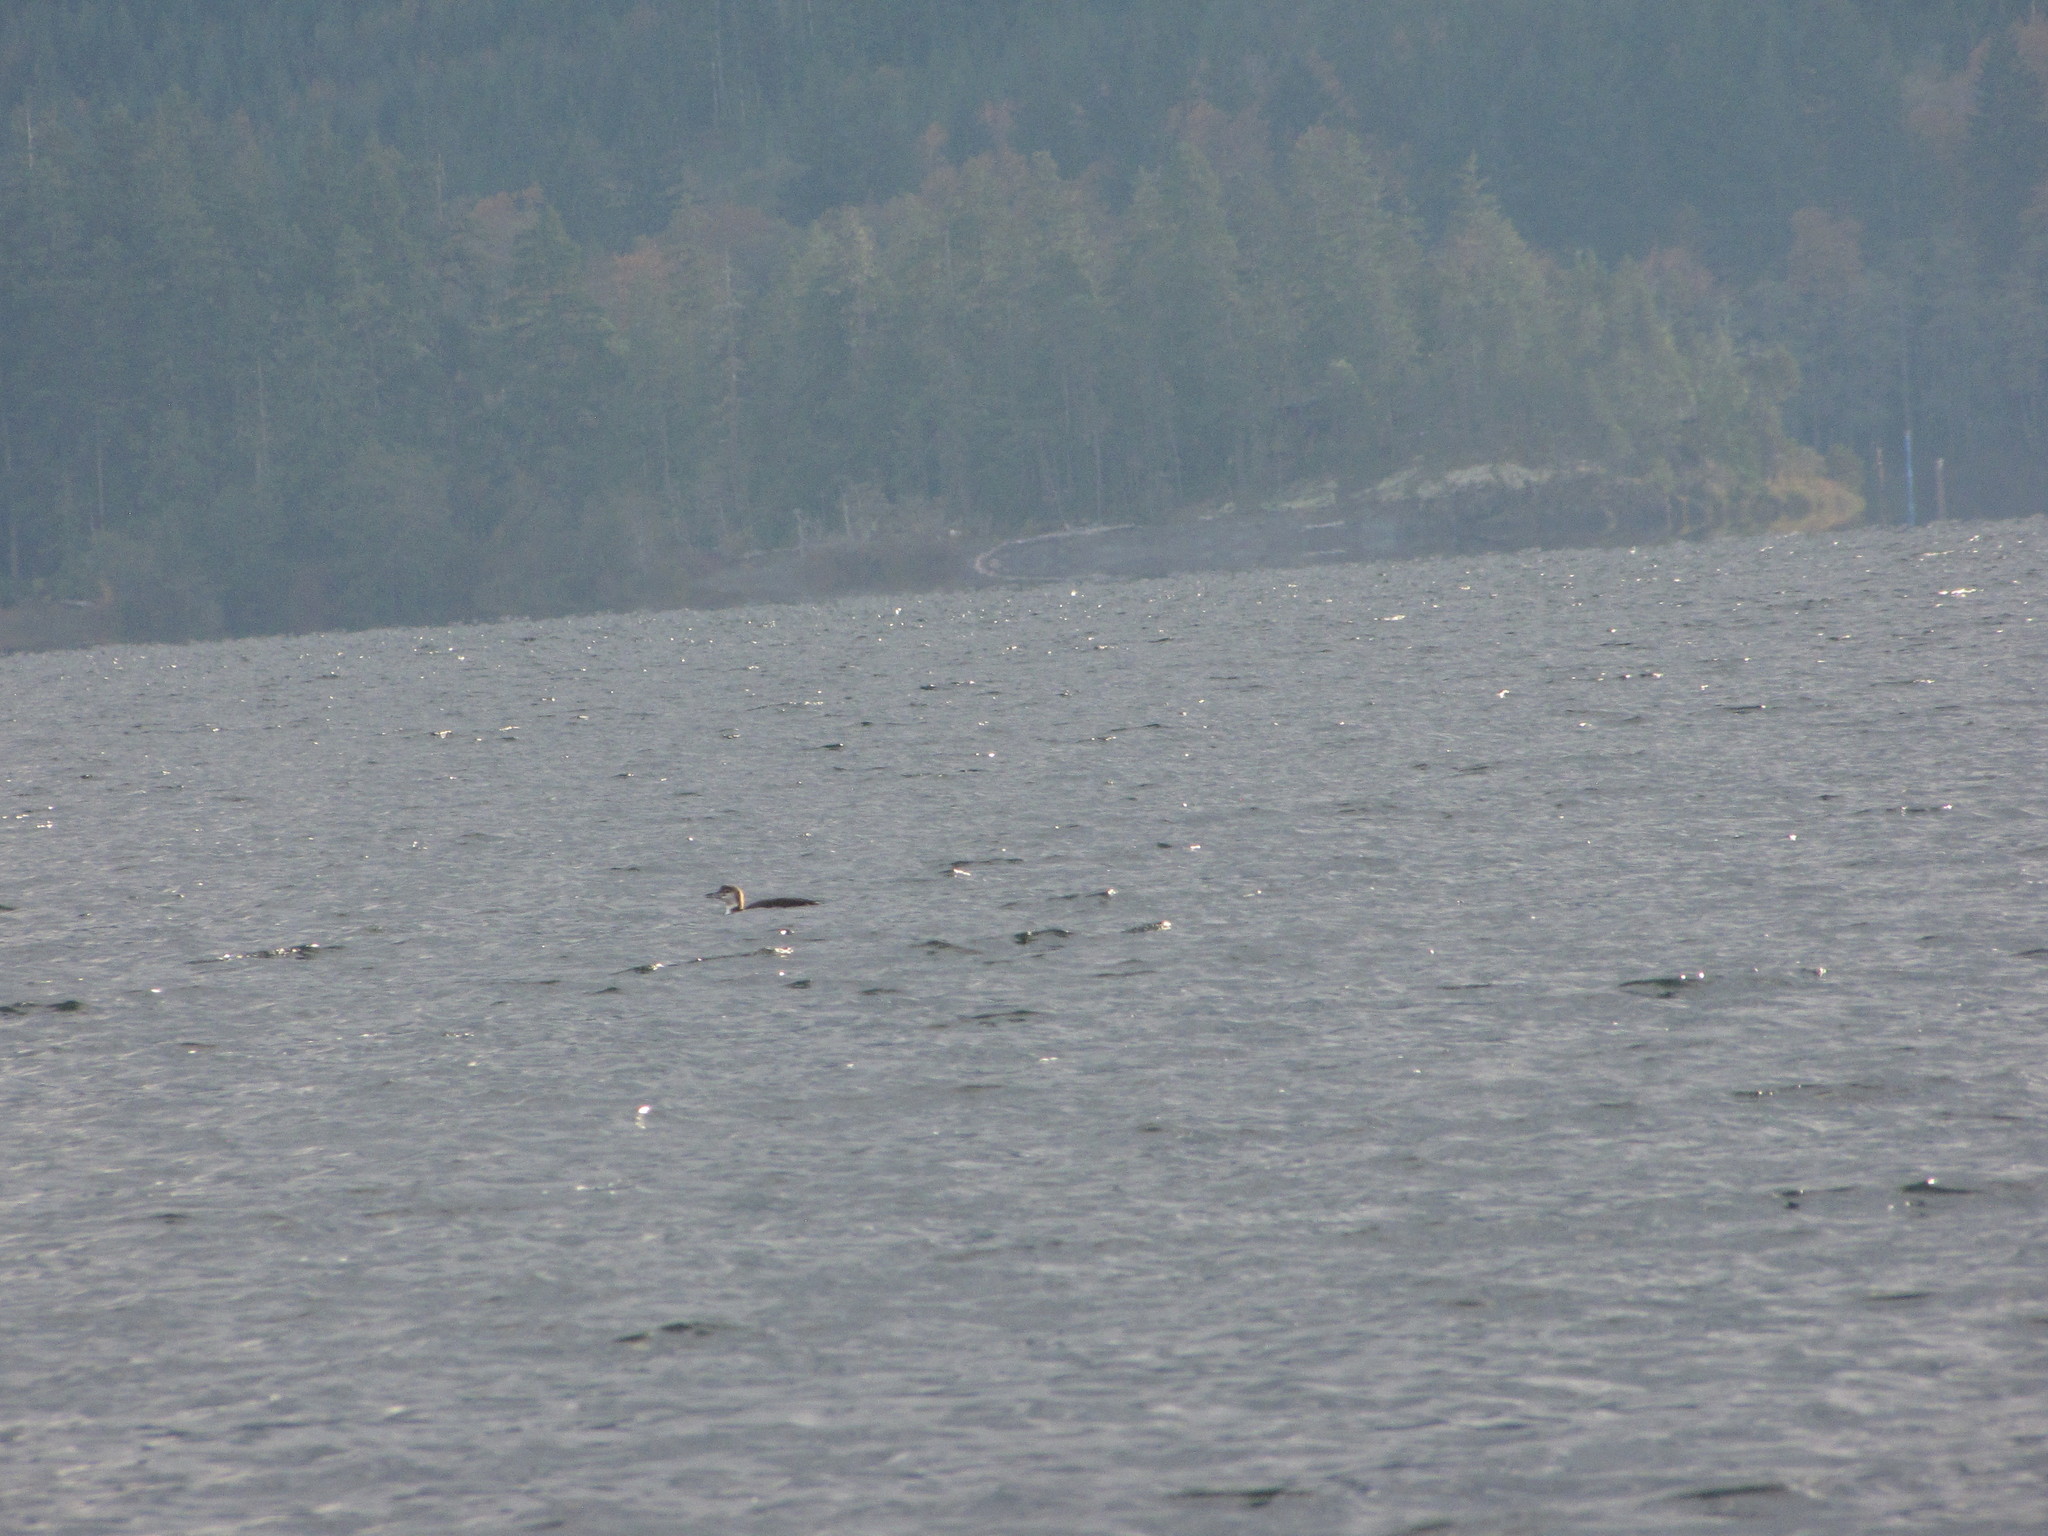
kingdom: Animalia
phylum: Chordata
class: Aves
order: Gaviiformes
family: Gaviidae
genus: Gavia
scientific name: Gavia immer
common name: Common loon
